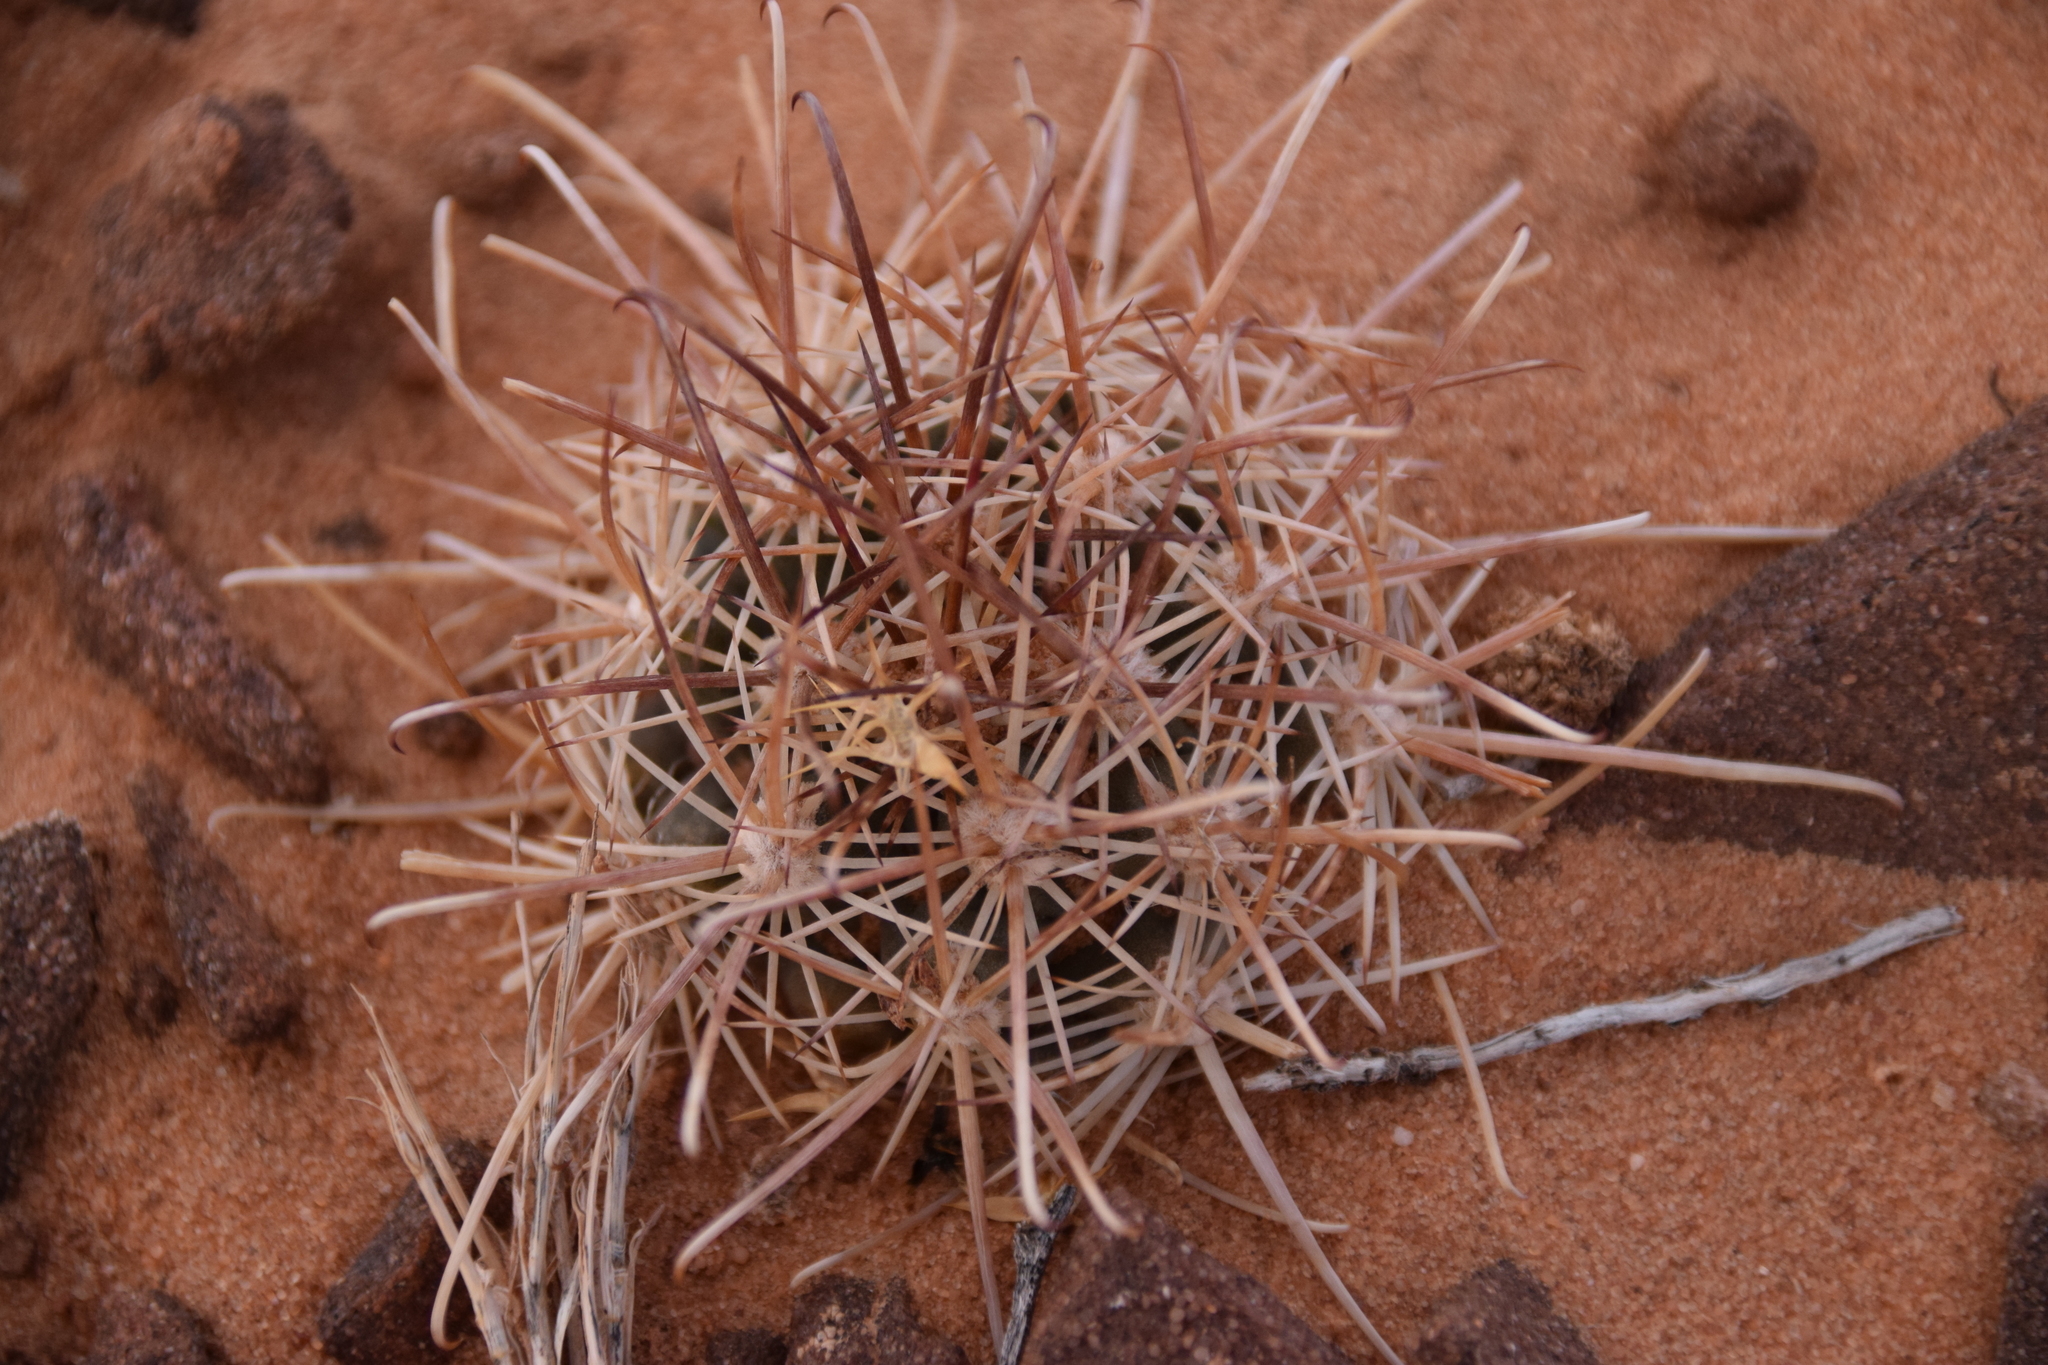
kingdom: Plantae
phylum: Tracheophyta
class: Magnoliopsida
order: Caryophyllales
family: Cactaceae
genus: Sclerocactus
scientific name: Sclerocactus parviflorus
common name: Small-flower fishhook cactus
